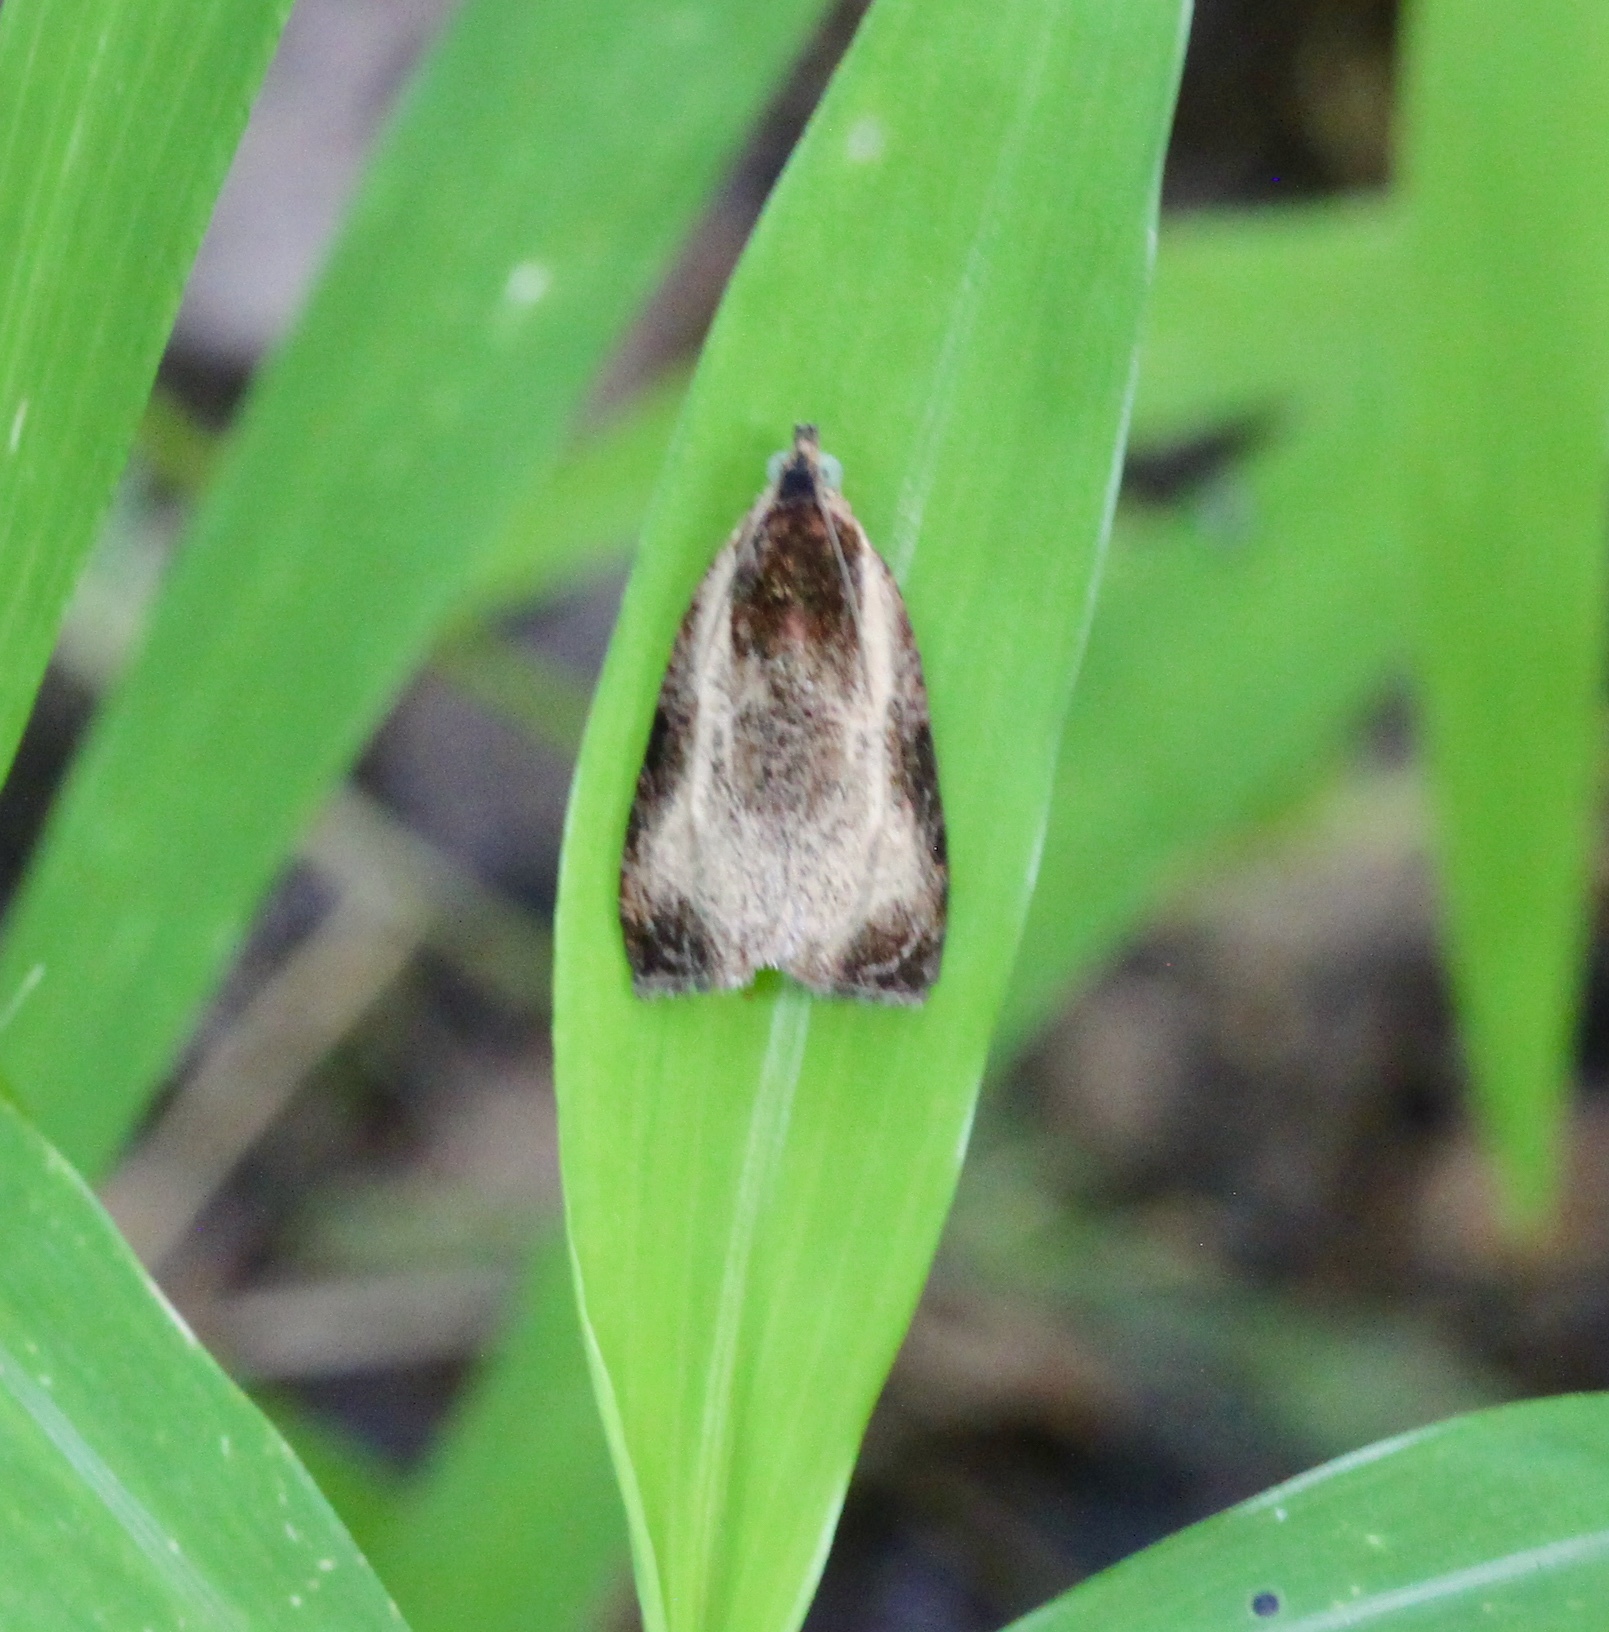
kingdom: Animalia
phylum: Arthropoda
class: Insecta
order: Lepidoptera
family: Tortricidae
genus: Olethreutes
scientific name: Olethreutes inornatana
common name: Inornate olethreutes moth
